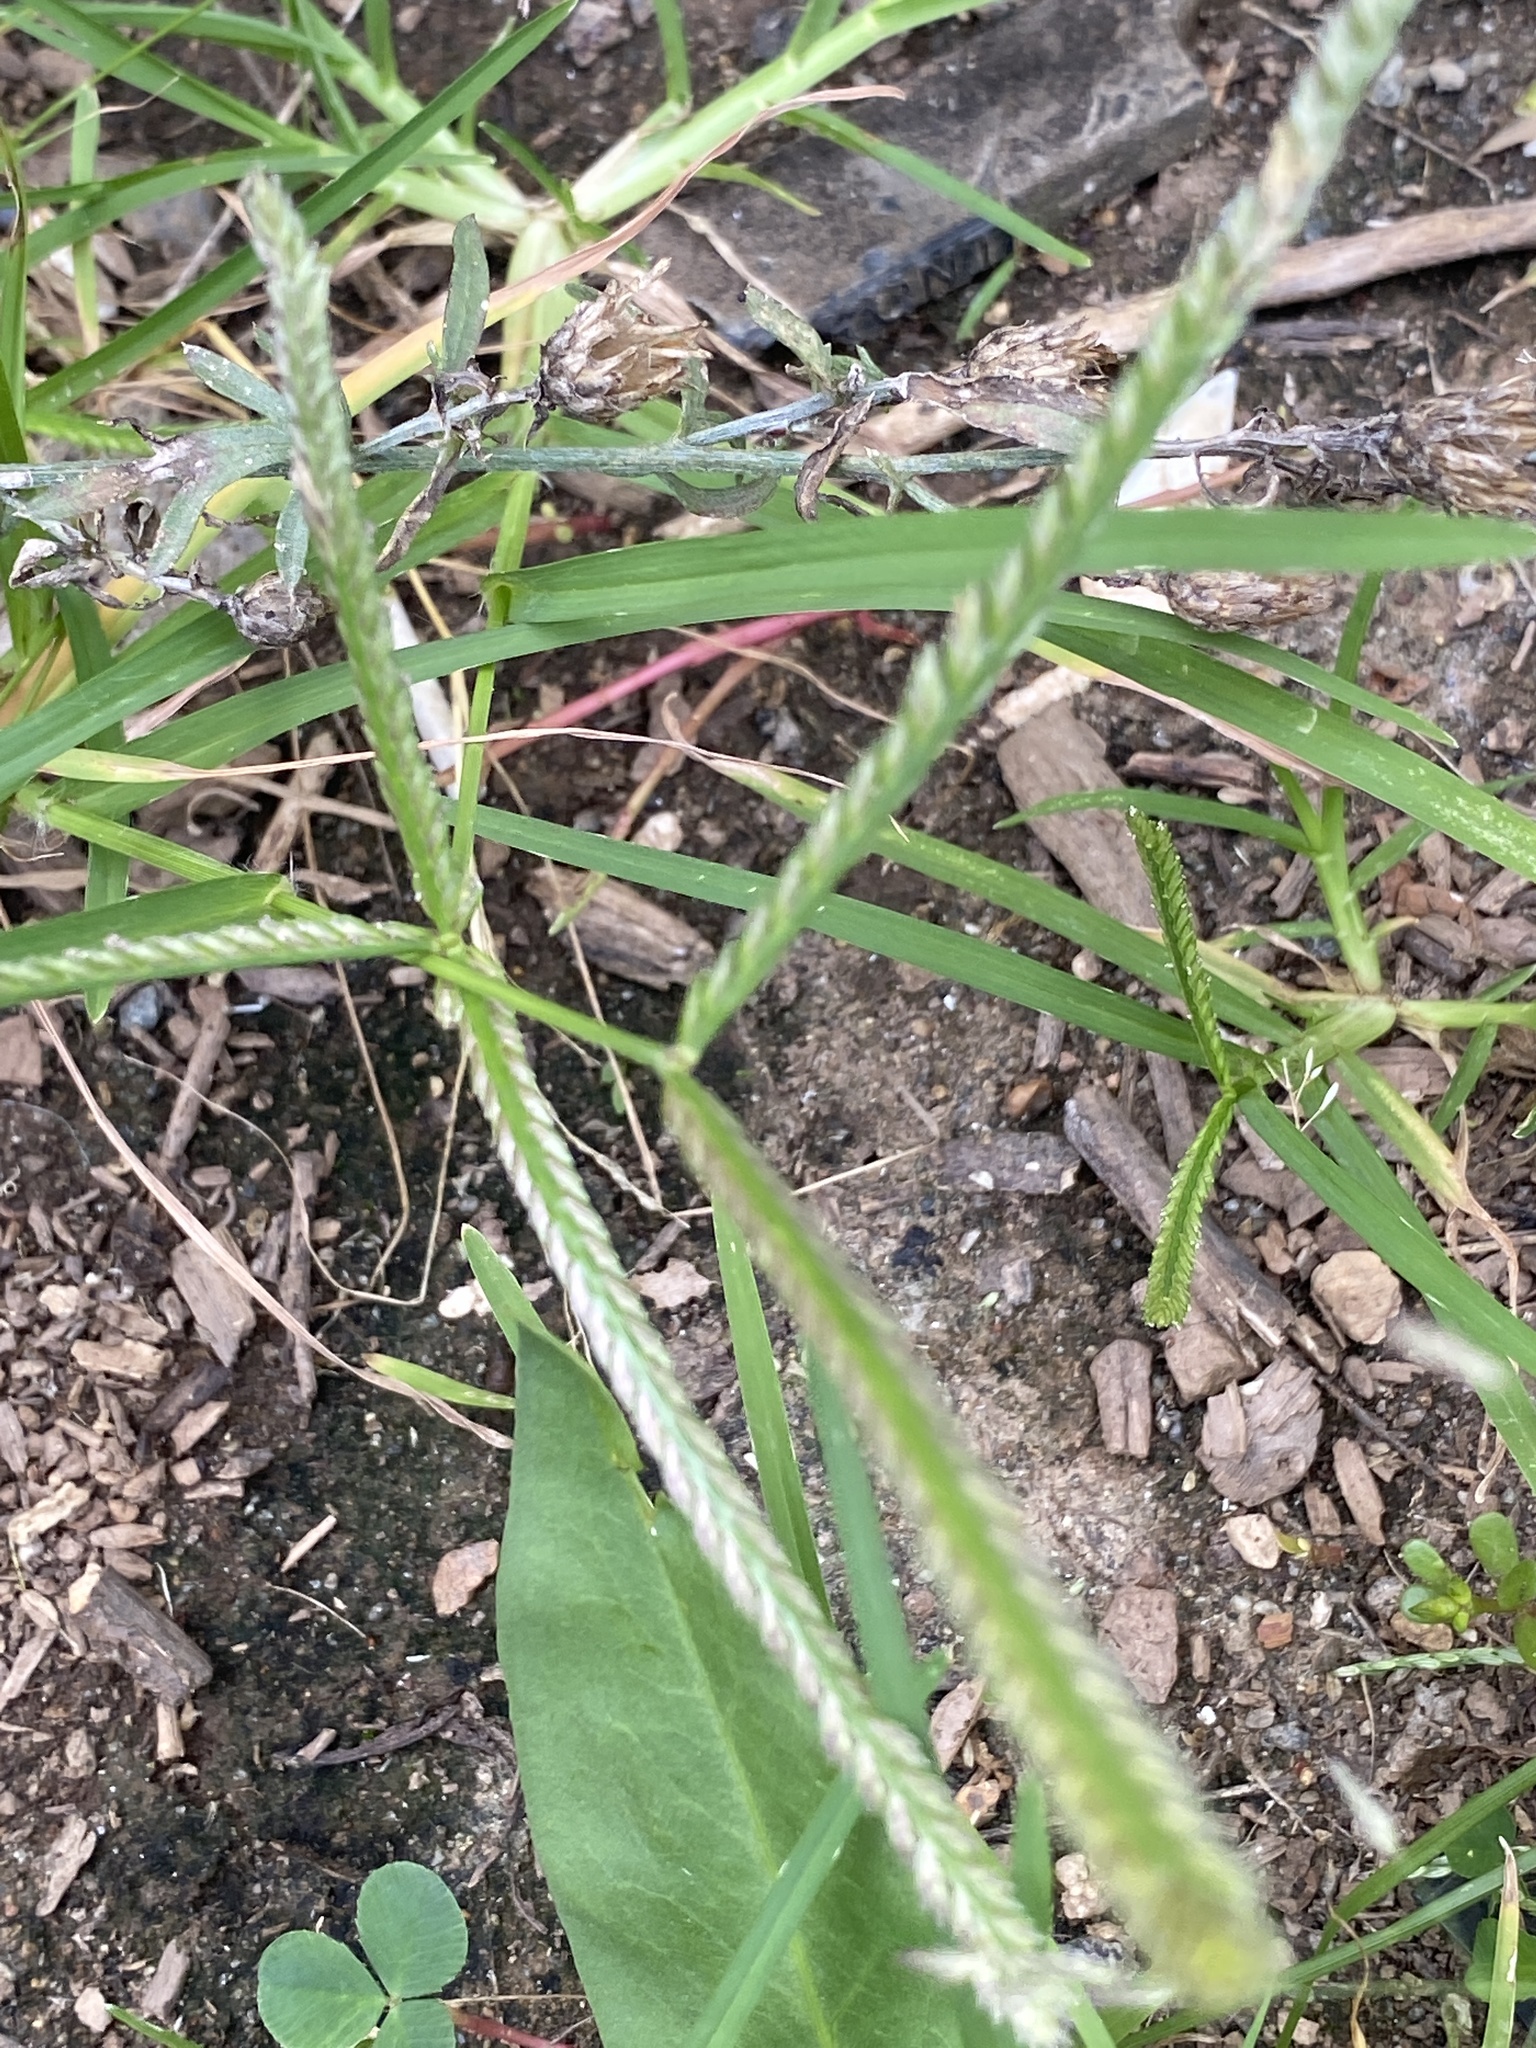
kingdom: Plantae
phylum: Tracheophyta
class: Liliopsida
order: Poales
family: Poaceae
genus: Eleusine
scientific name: Eleusine indica
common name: Yard-grass
